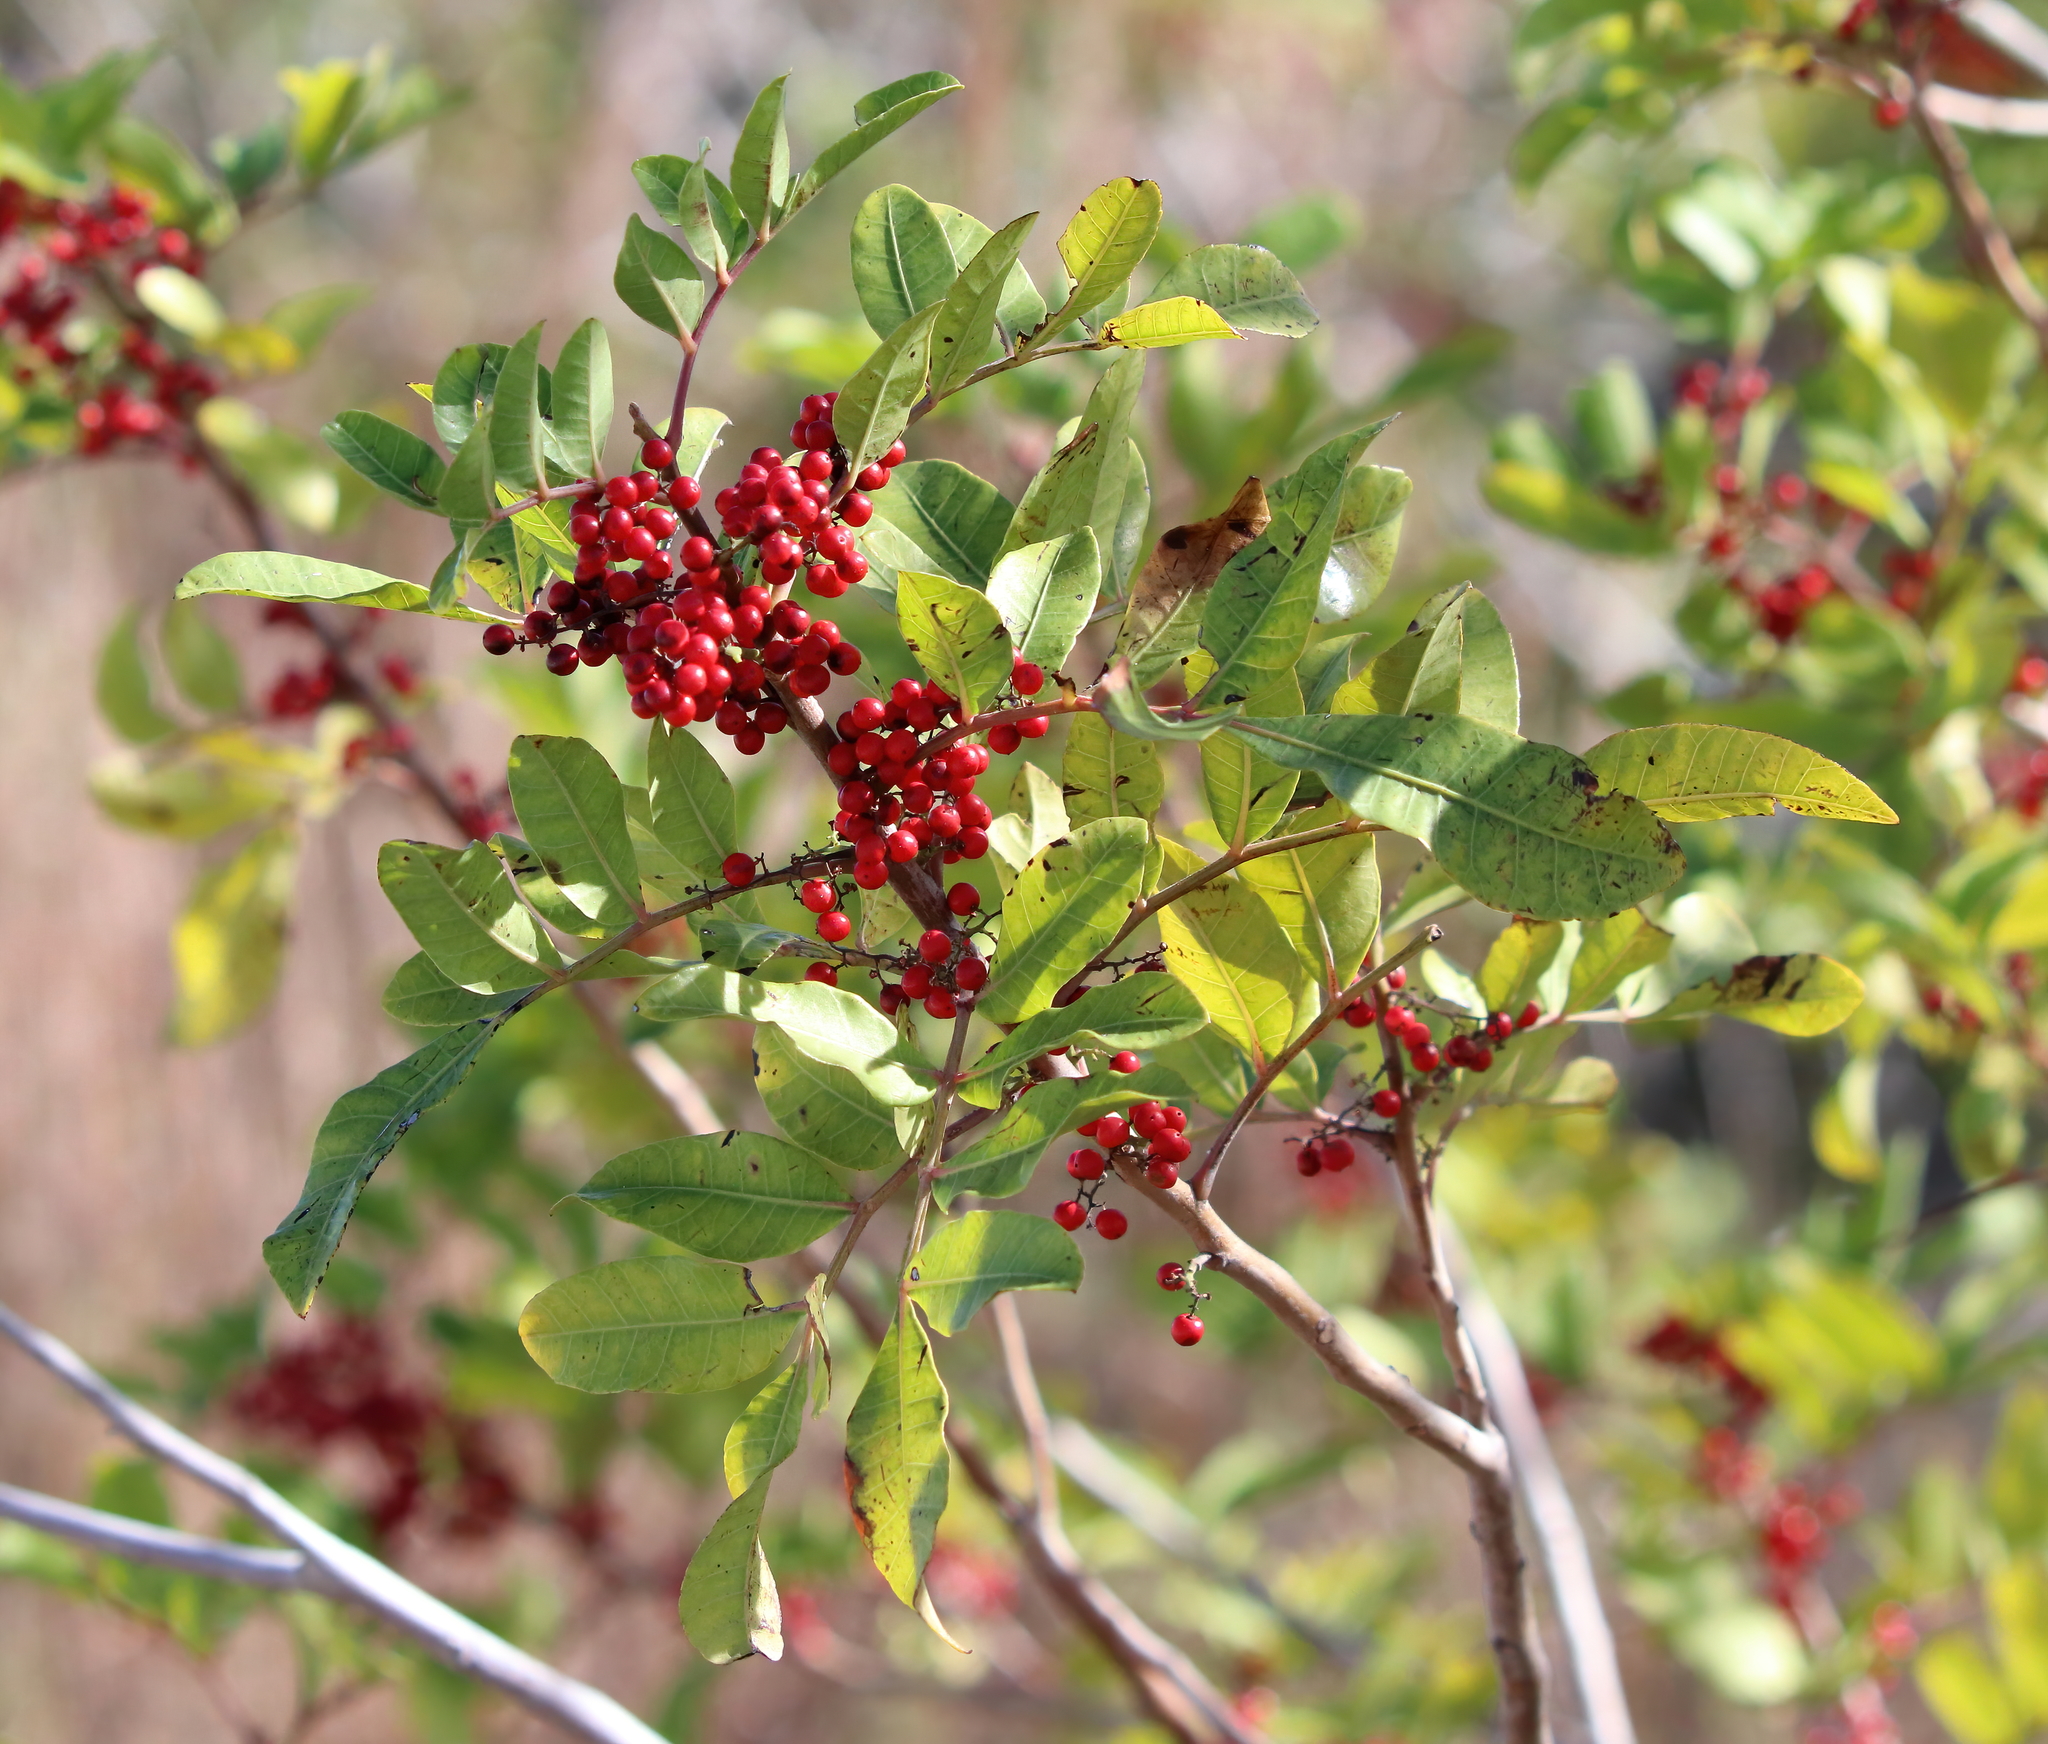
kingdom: Plantae
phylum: Tracheophyta
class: Magnoliopsida
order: Sapindales
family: Anacardiaceae
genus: Schinus
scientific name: Schinus terebinthifolia
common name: Brazilian peppertree
